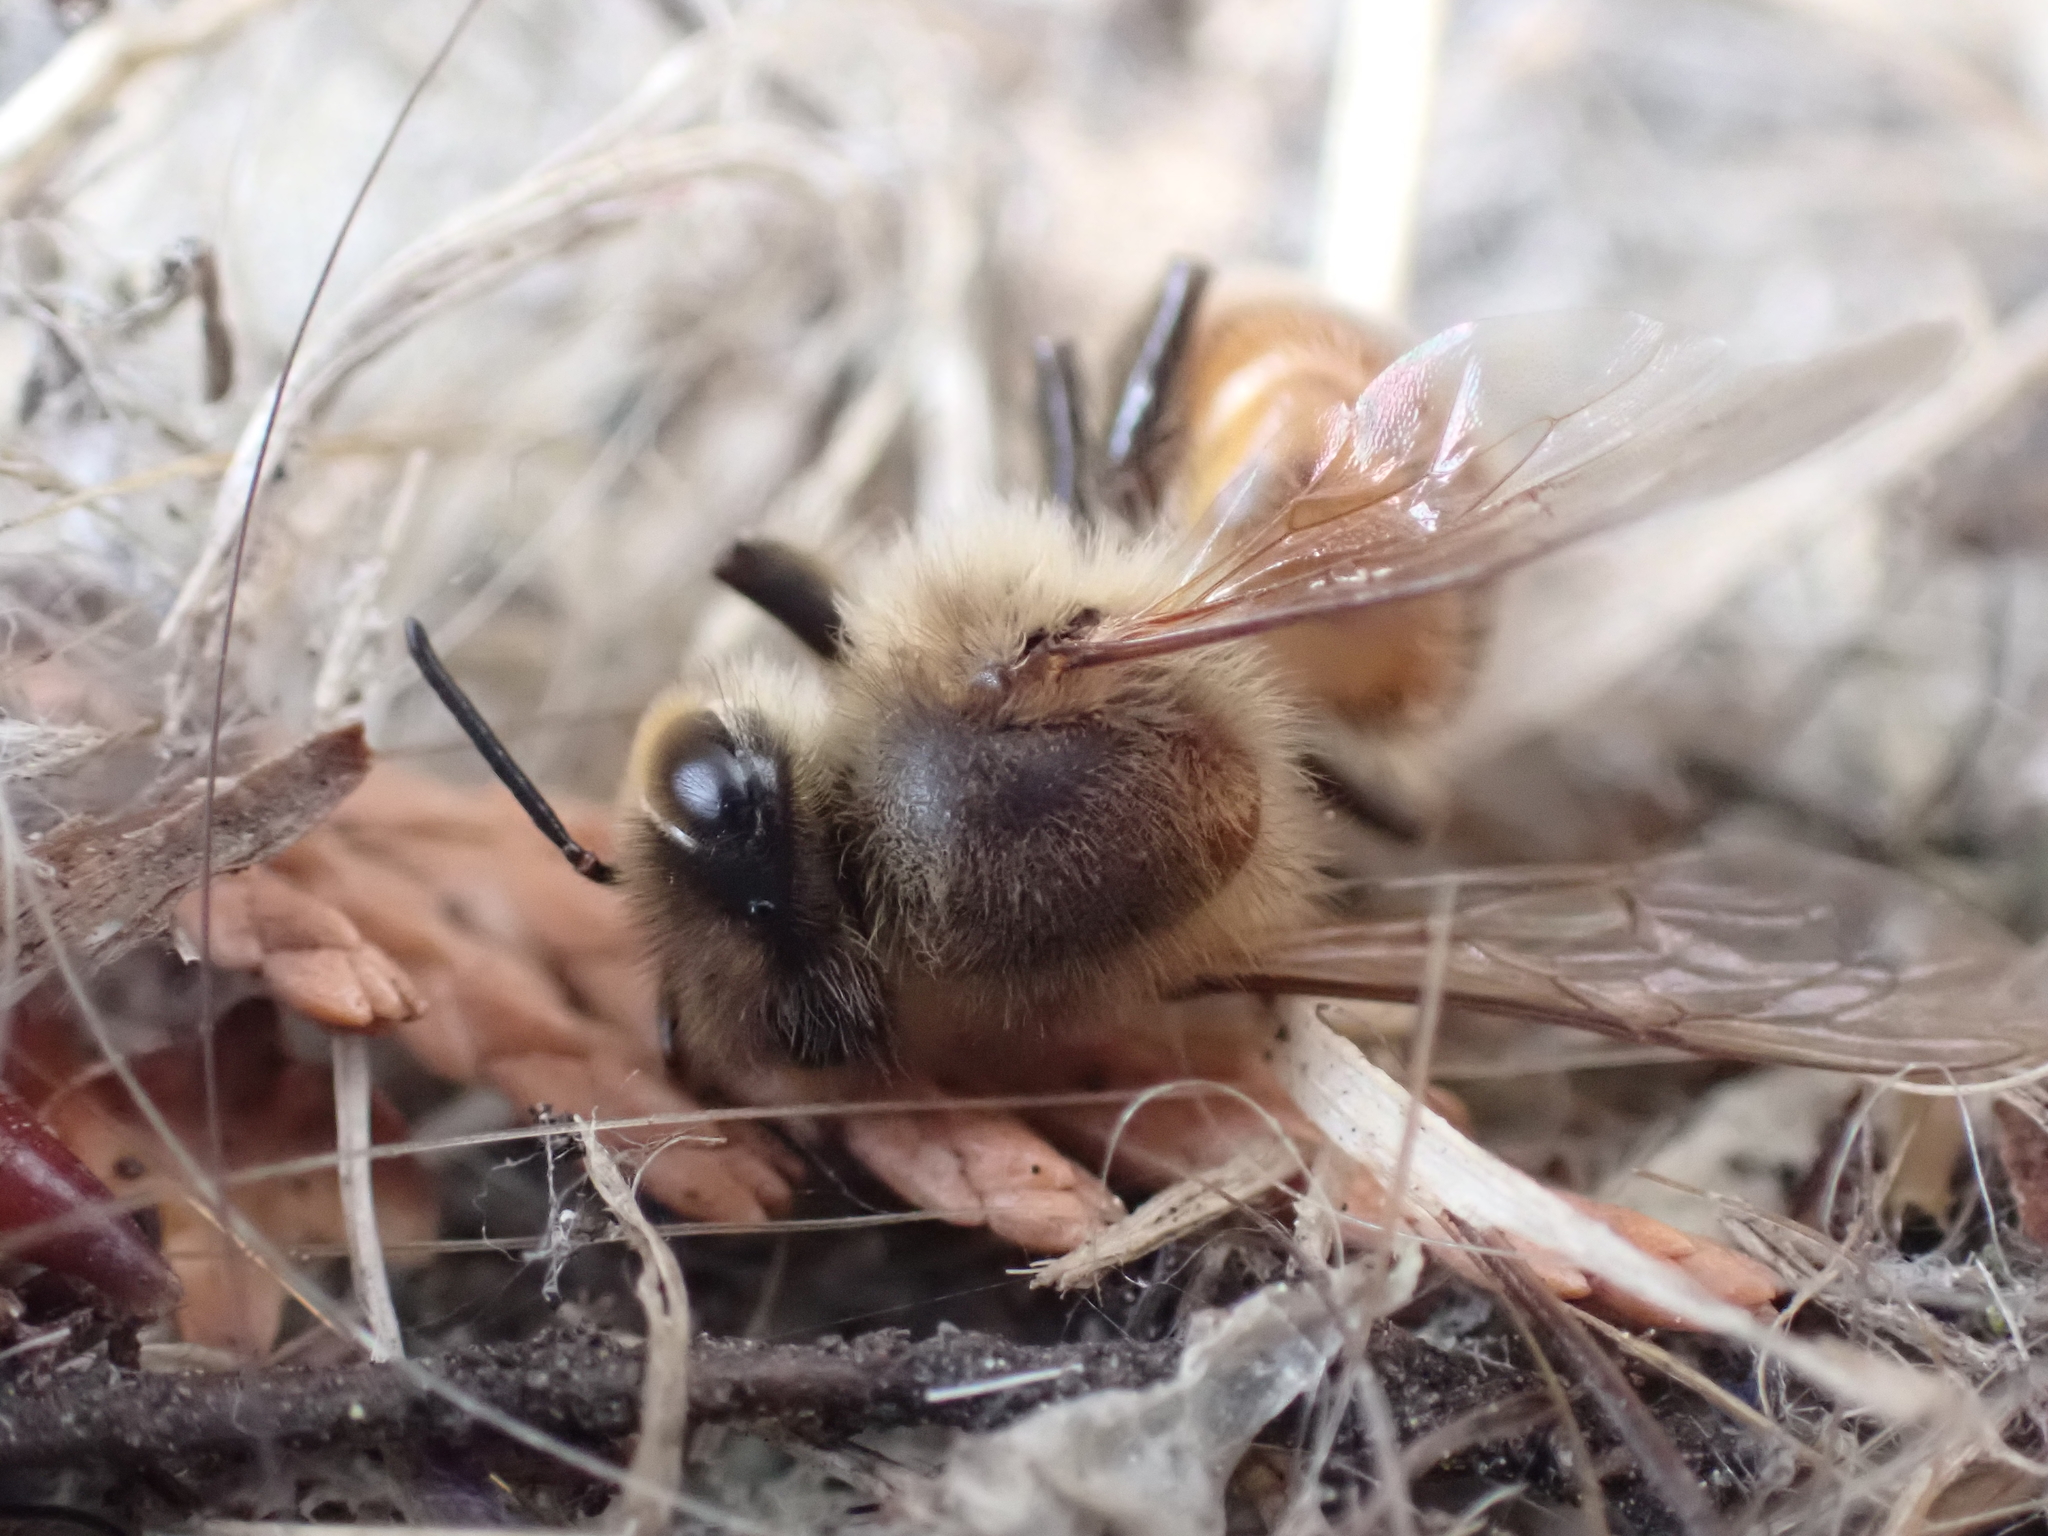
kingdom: Animalia
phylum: Arthropoda
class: Insecta
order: Hymenoptera
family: Apidae
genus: Apis
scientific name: Apis mellifera
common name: Honey bee
